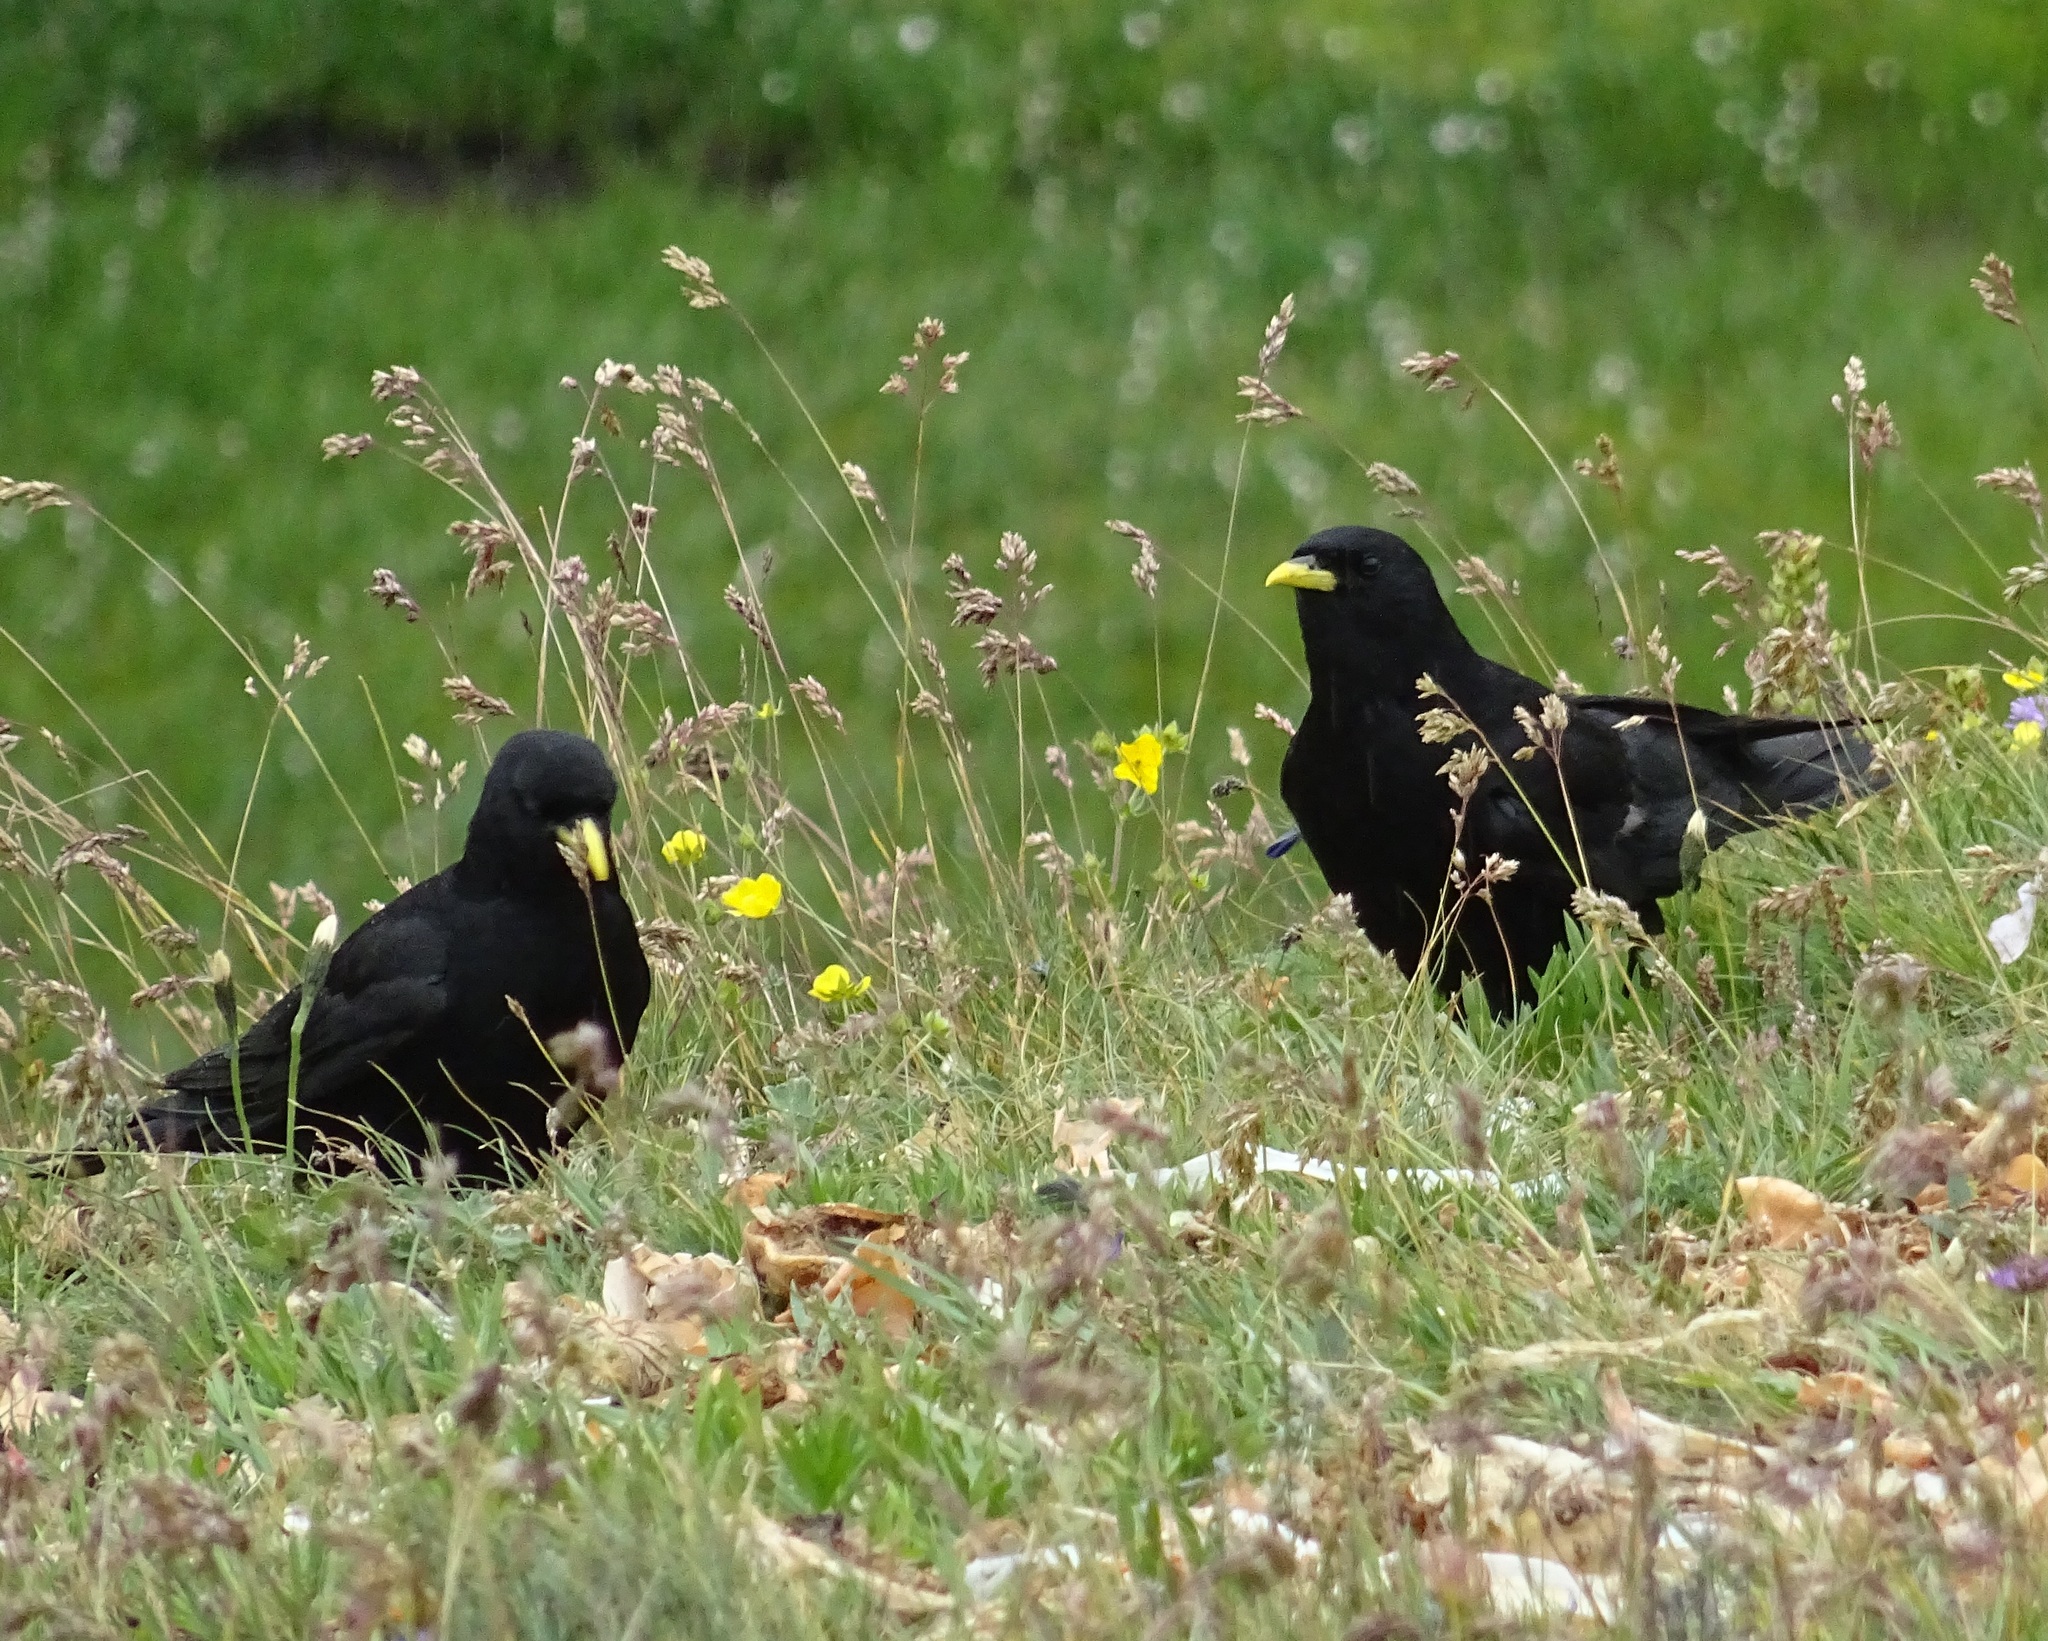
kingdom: Animalia
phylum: Chordata
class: Aves
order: Passeriformes
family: Corvidae
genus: Pyrrhocorax
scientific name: Pyrrhocorax graculus
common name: Alpine chough
